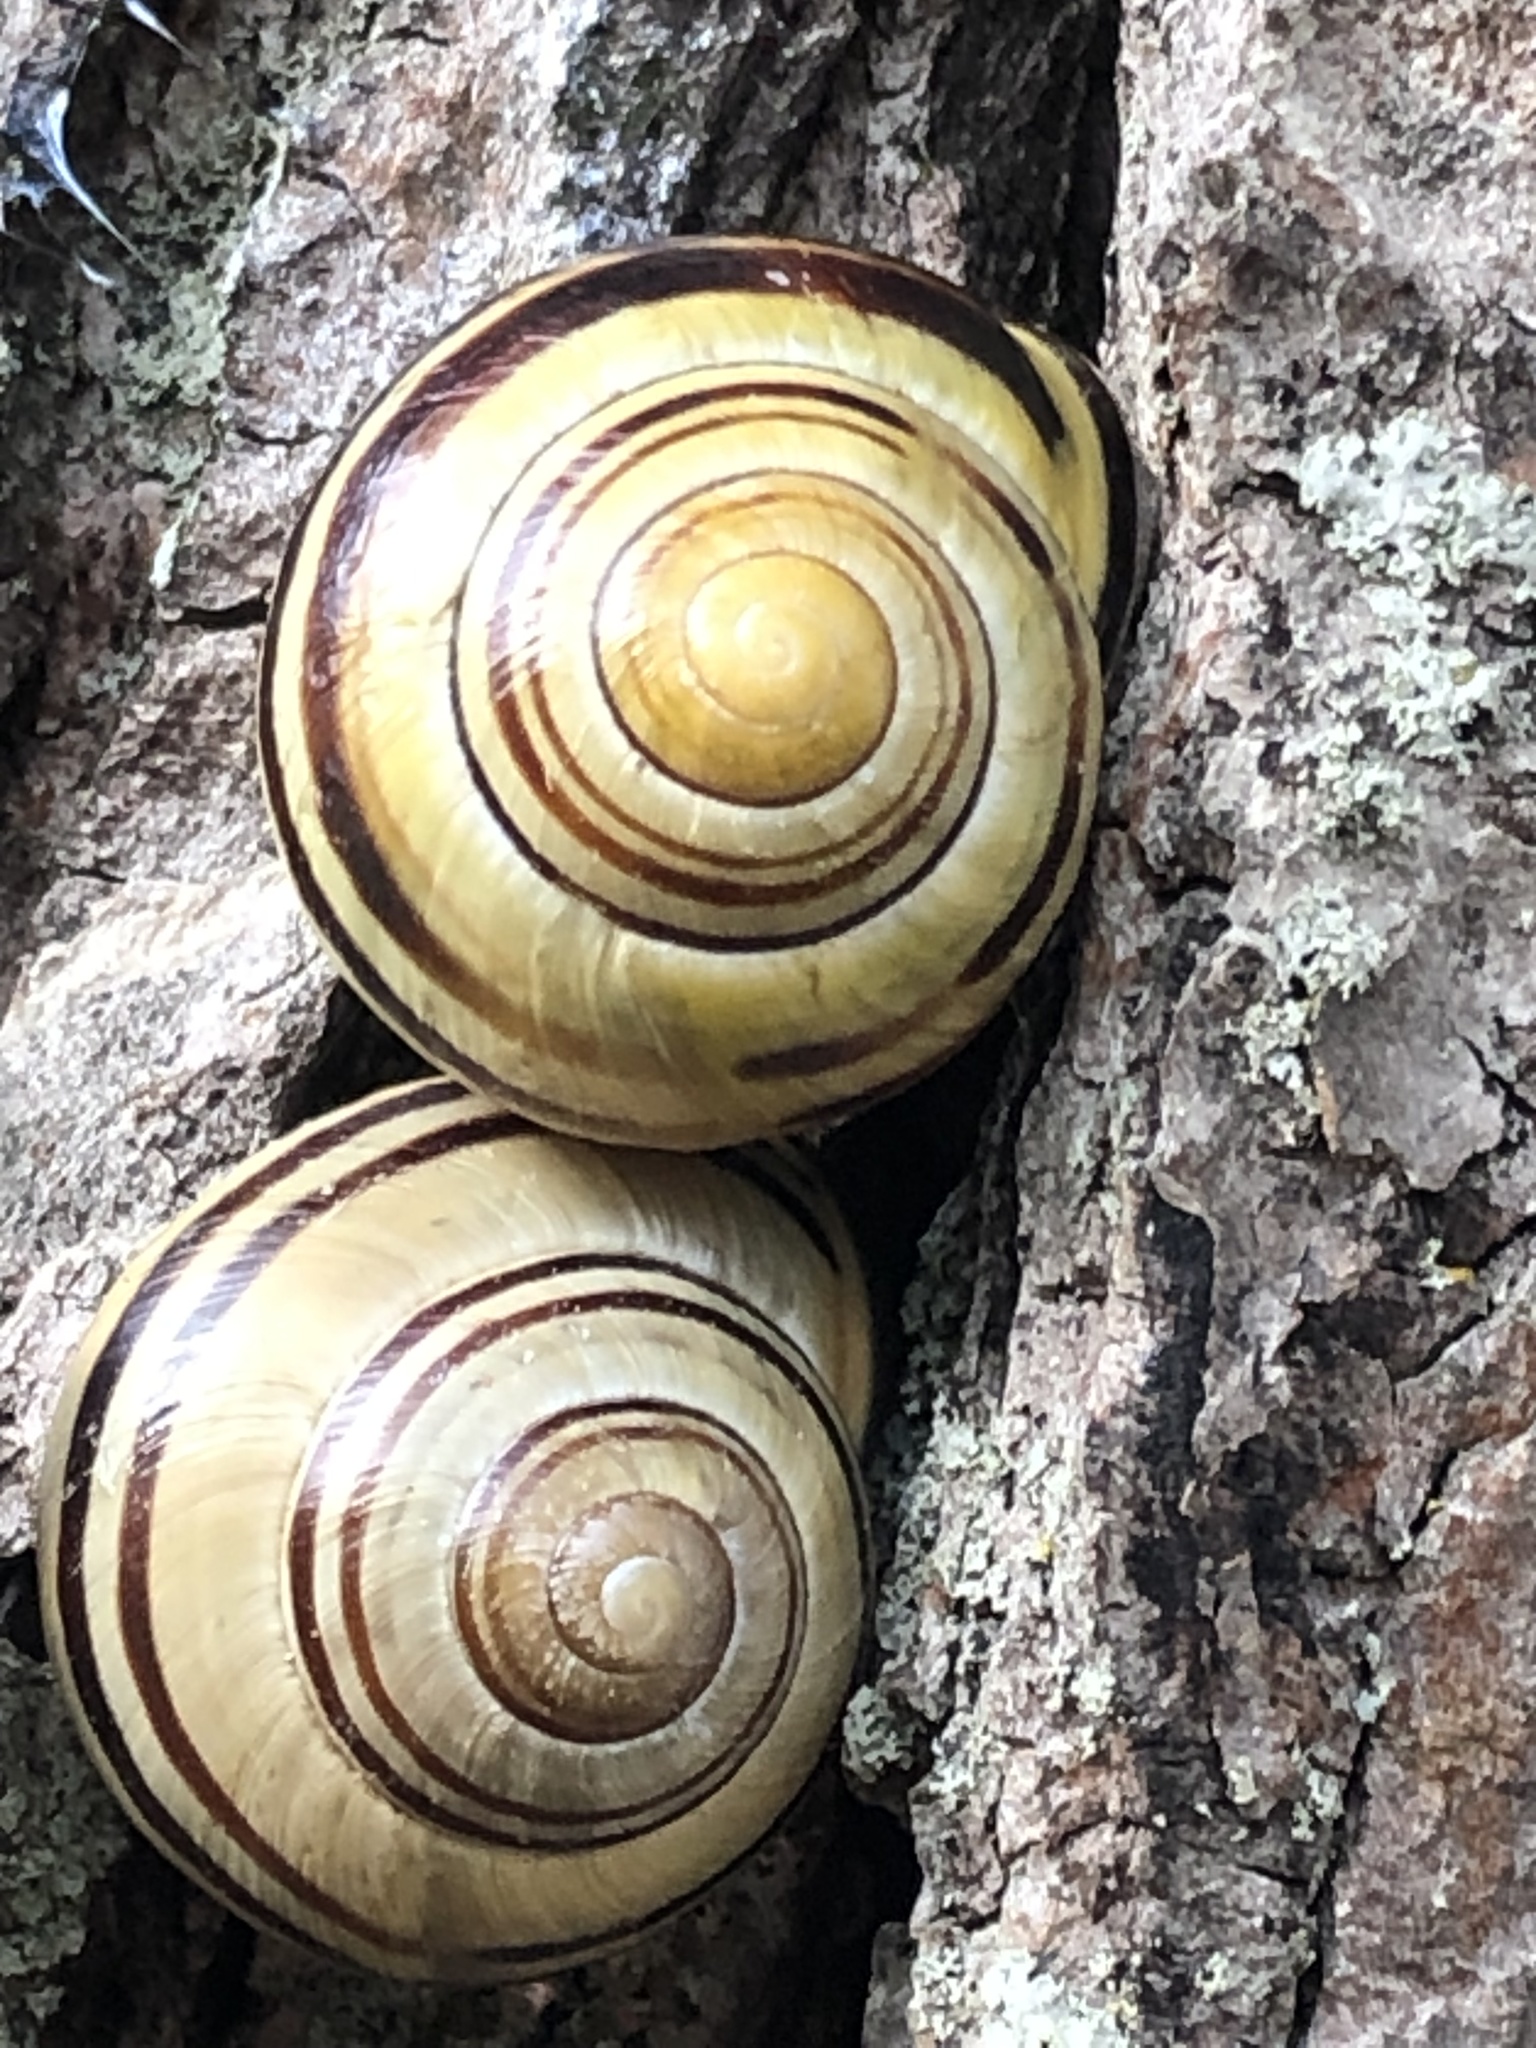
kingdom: Animalia
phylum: Mollusca
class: Gastropoda
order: Stylommatophora
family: Helicidae
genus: Cepaea
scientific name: Cepaea nemoralis
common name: Grovesnail
